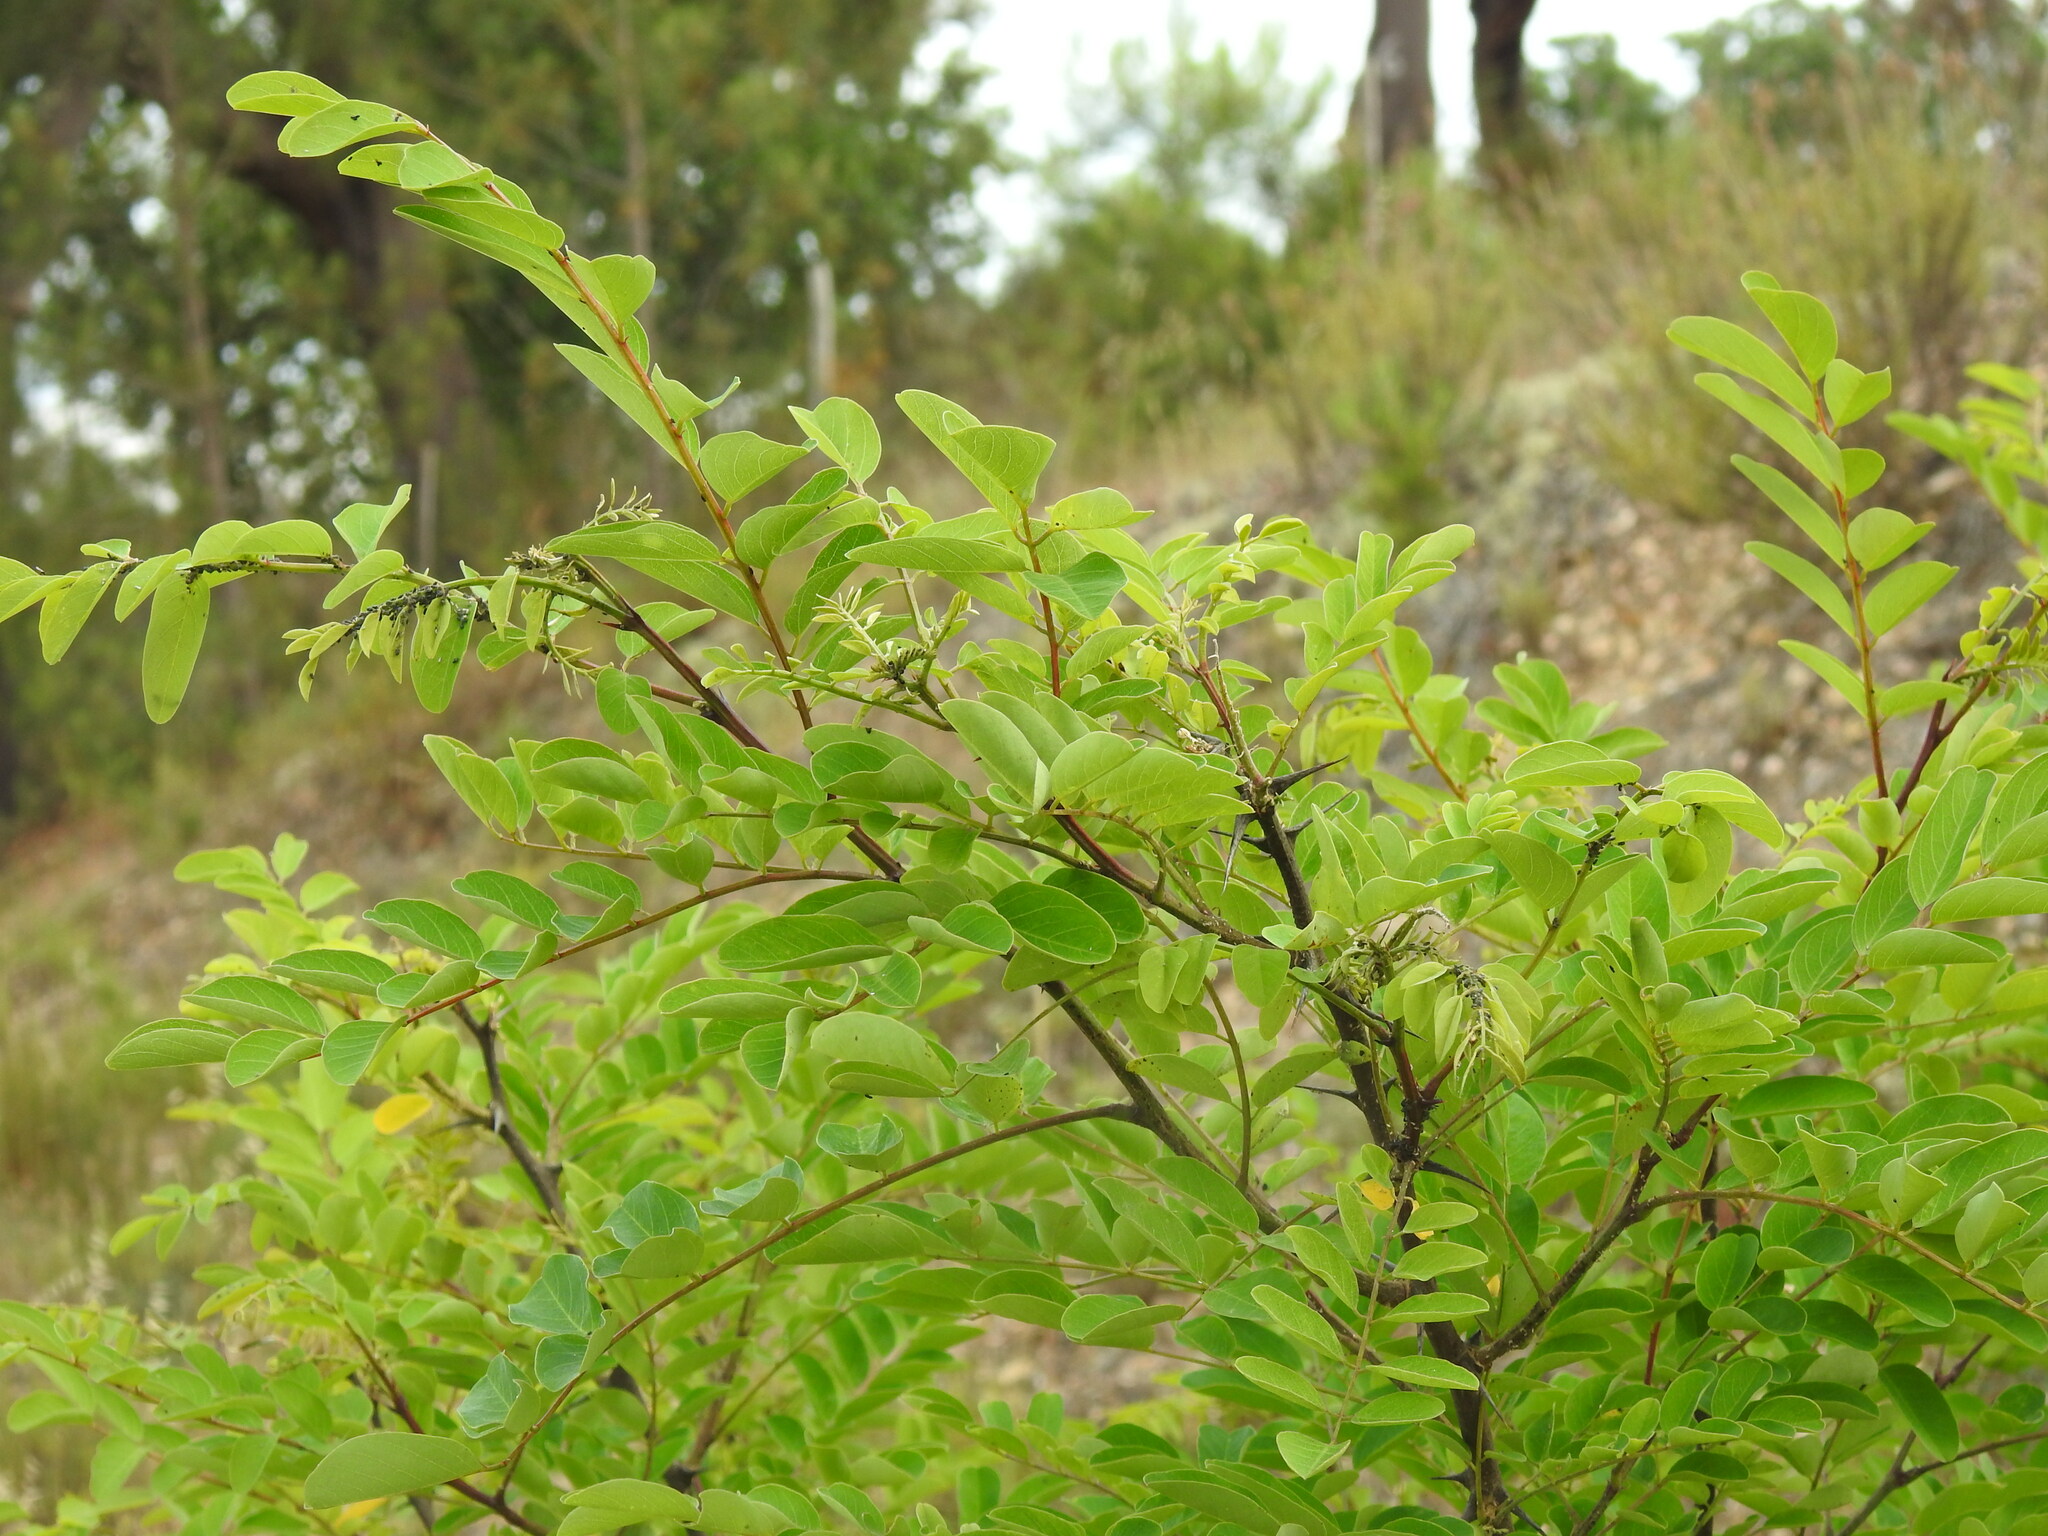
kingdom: Plantae
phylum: Tracheophyta
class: Magnoliopsida
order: Fabales
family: Fabaceae
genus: Robinia
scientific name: Robinia pseudoacacia
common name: Black locust
